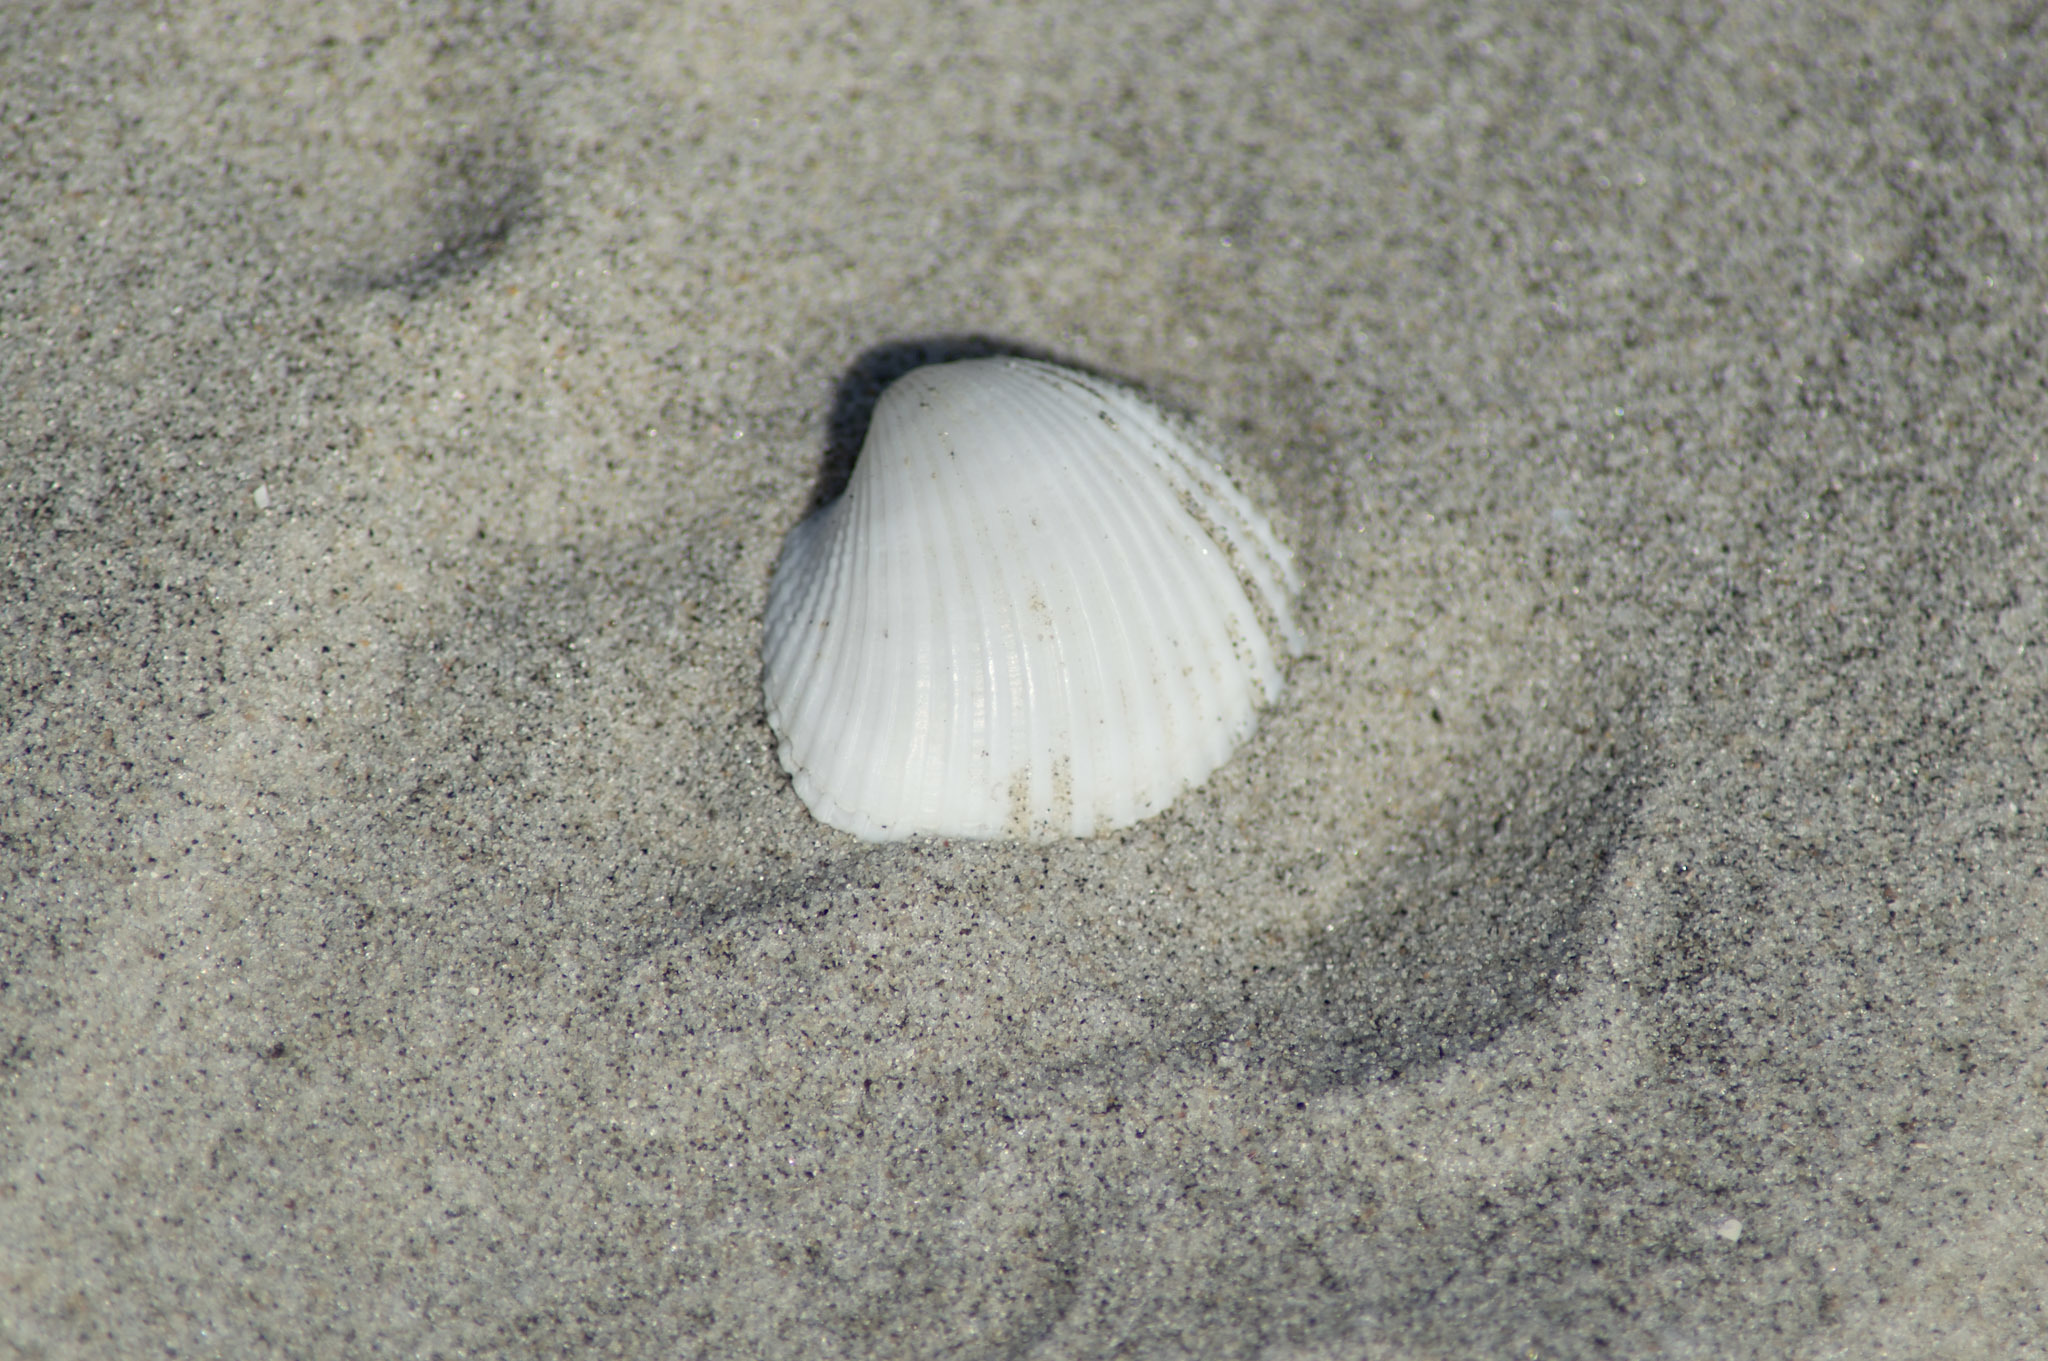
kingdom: Animalia
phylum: Mollusca
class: Bivalvia
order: Arcida
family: Arcidae
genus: Anadara
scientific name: Anadara brasiliana
